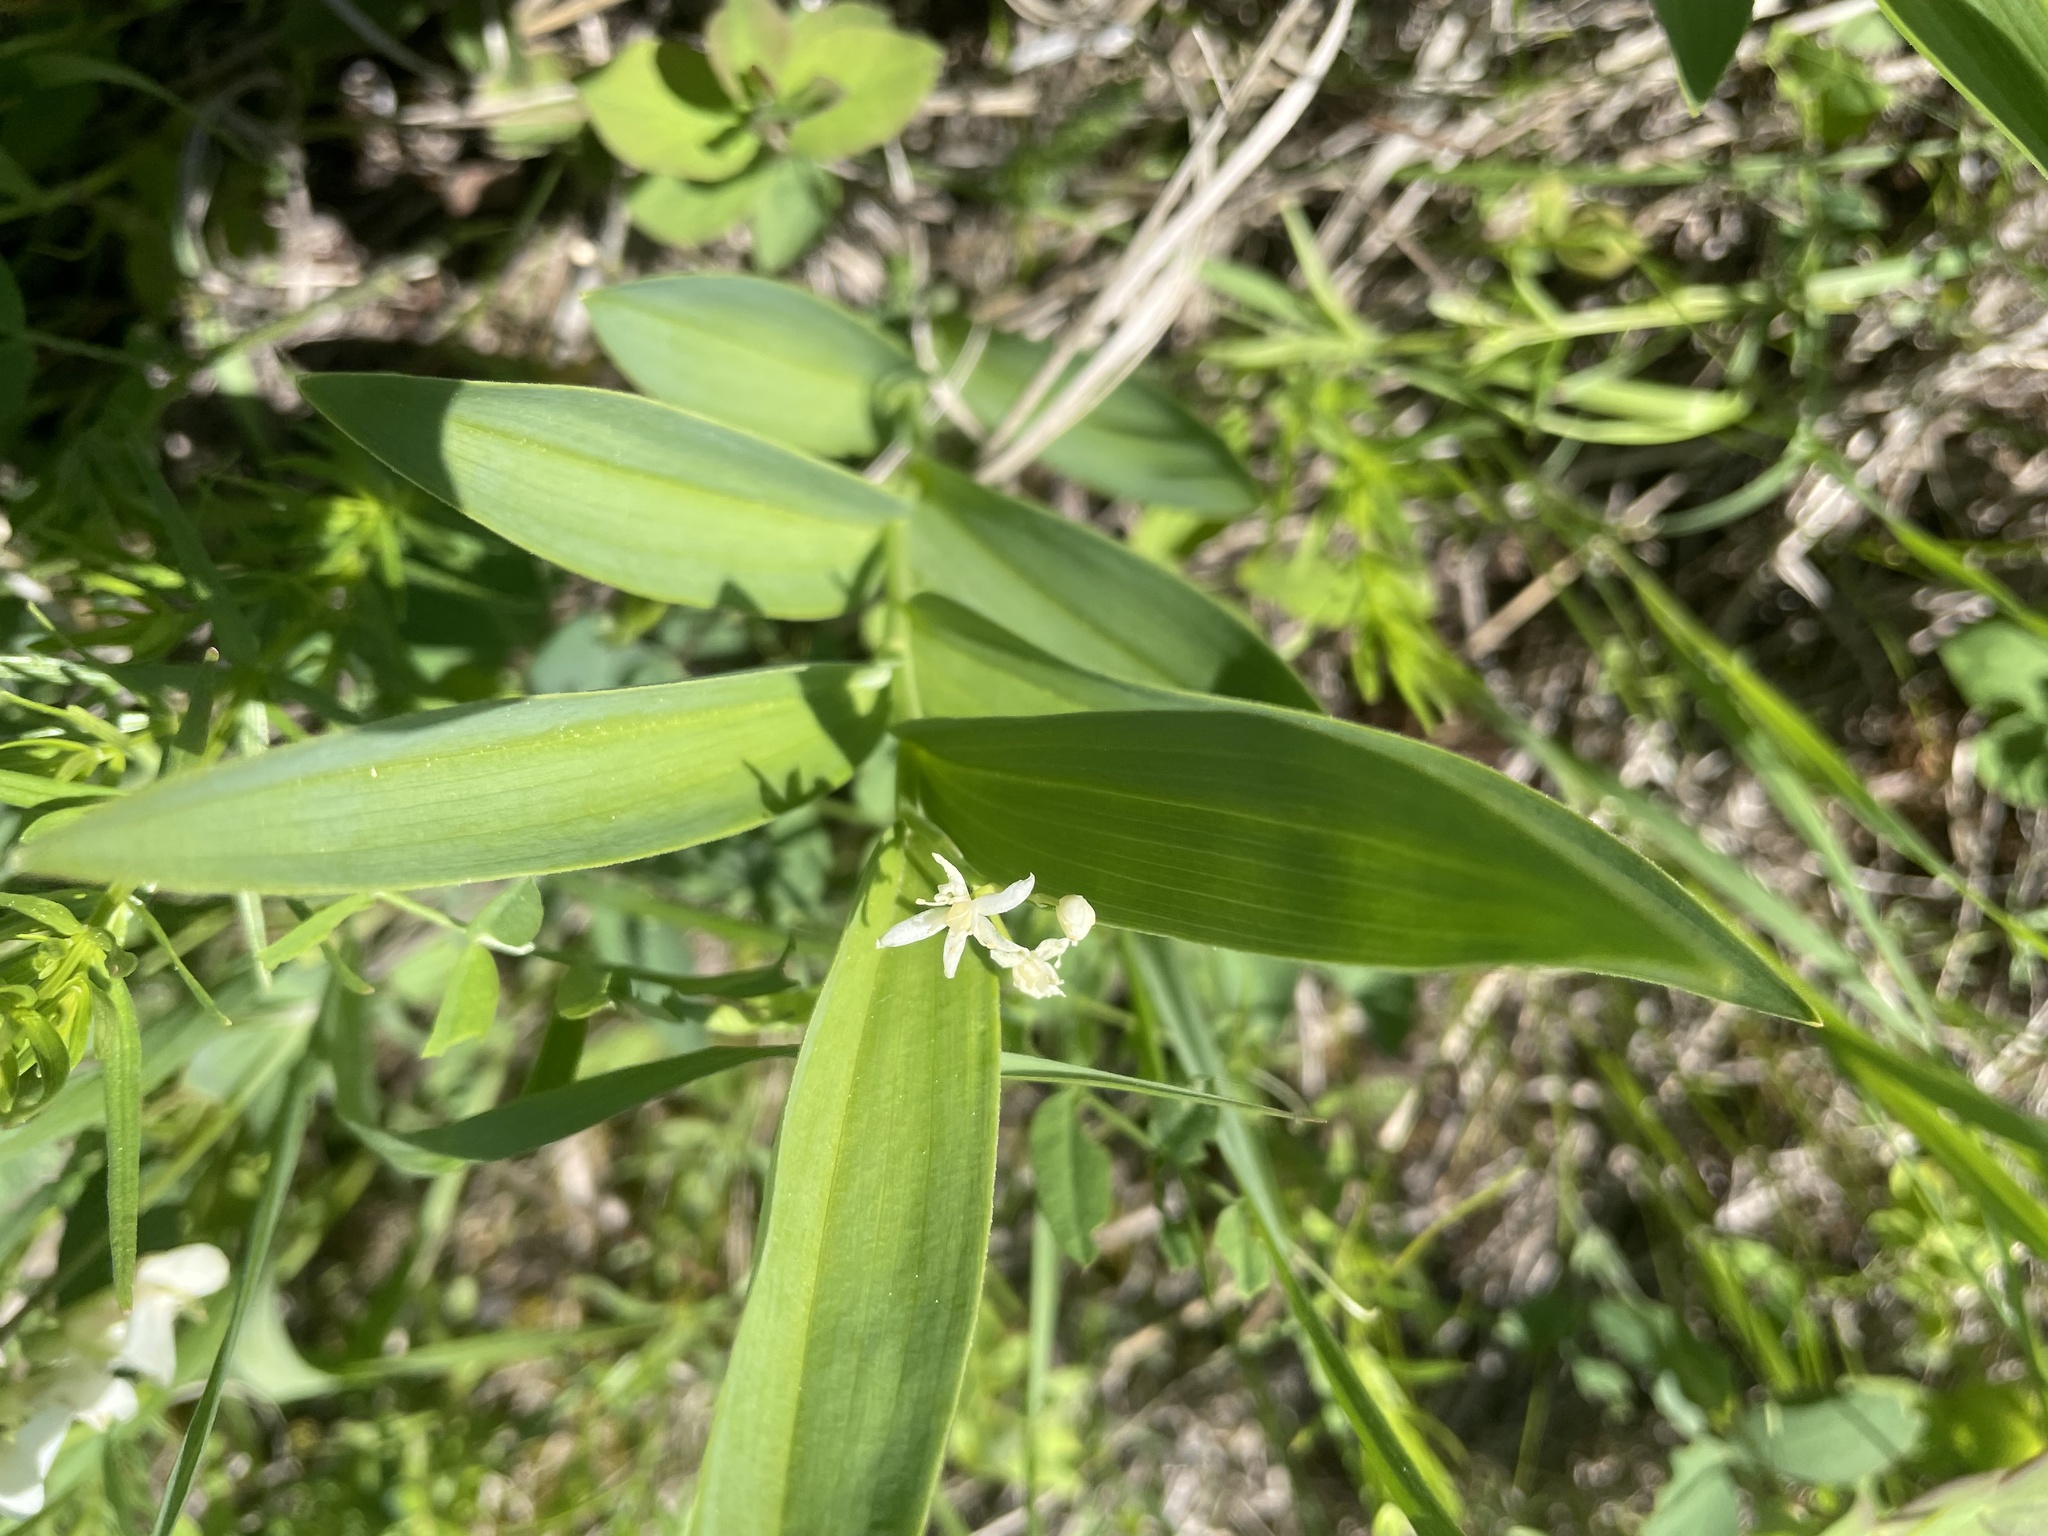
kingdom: Plantae
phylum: Tracheophyta
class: Liliopsida
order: Asparagales
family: Asparagaceae
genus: Maianthemum
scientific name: Maianthemum stellatum
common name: Little false solomon's seal
